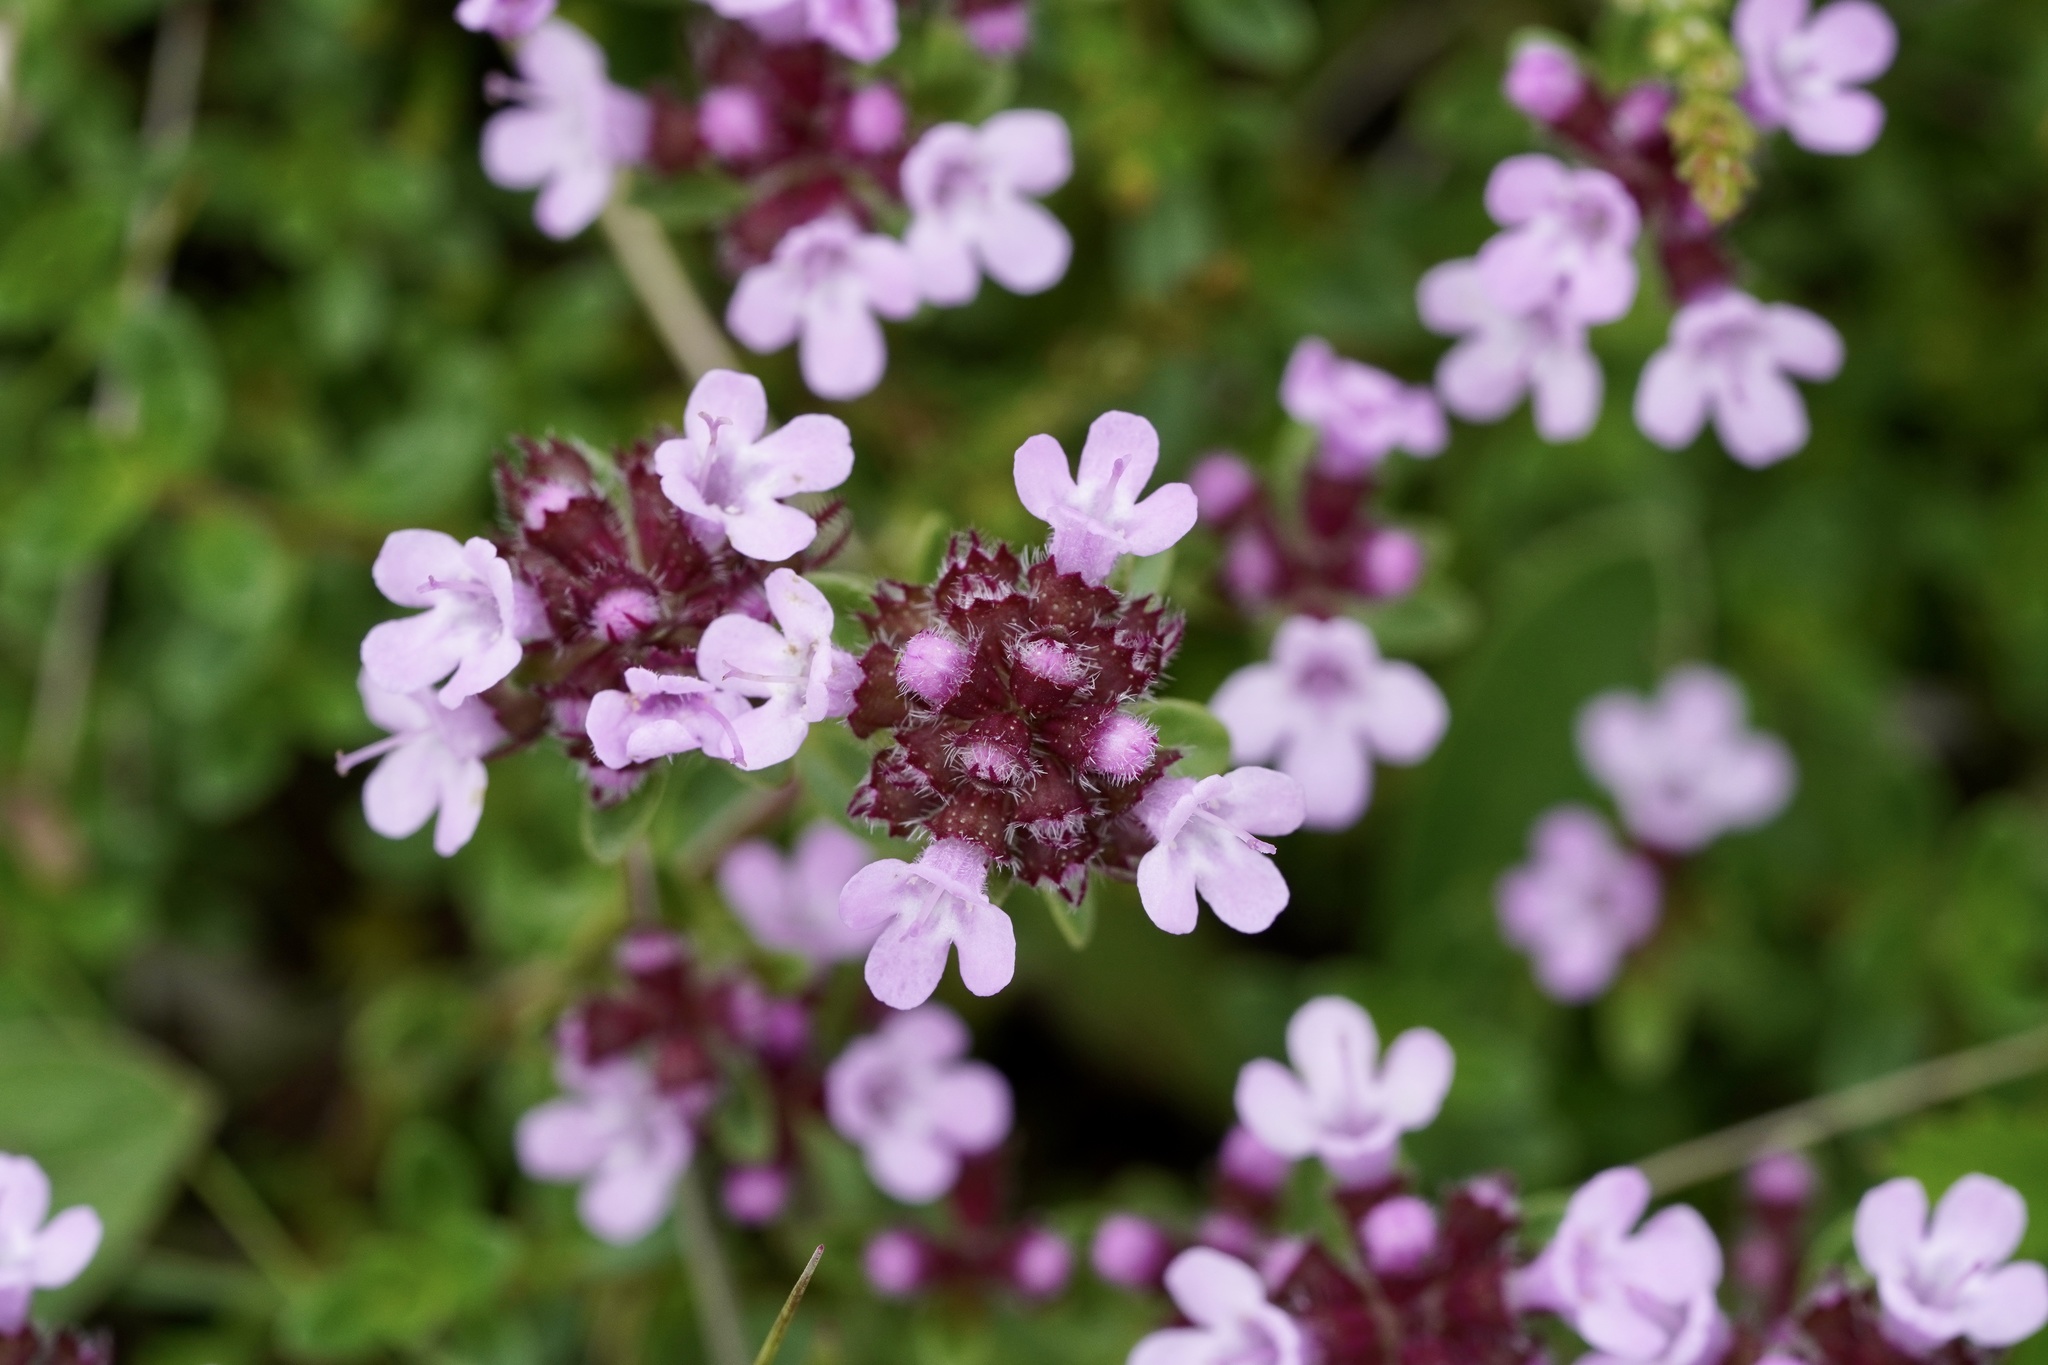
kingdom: Plantae
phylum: Tracheophyta
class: Magnoliopsida
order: Lamiales
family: Lamiaceae
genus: Thymus
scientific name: Thymus praecox
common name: Wild thyme
